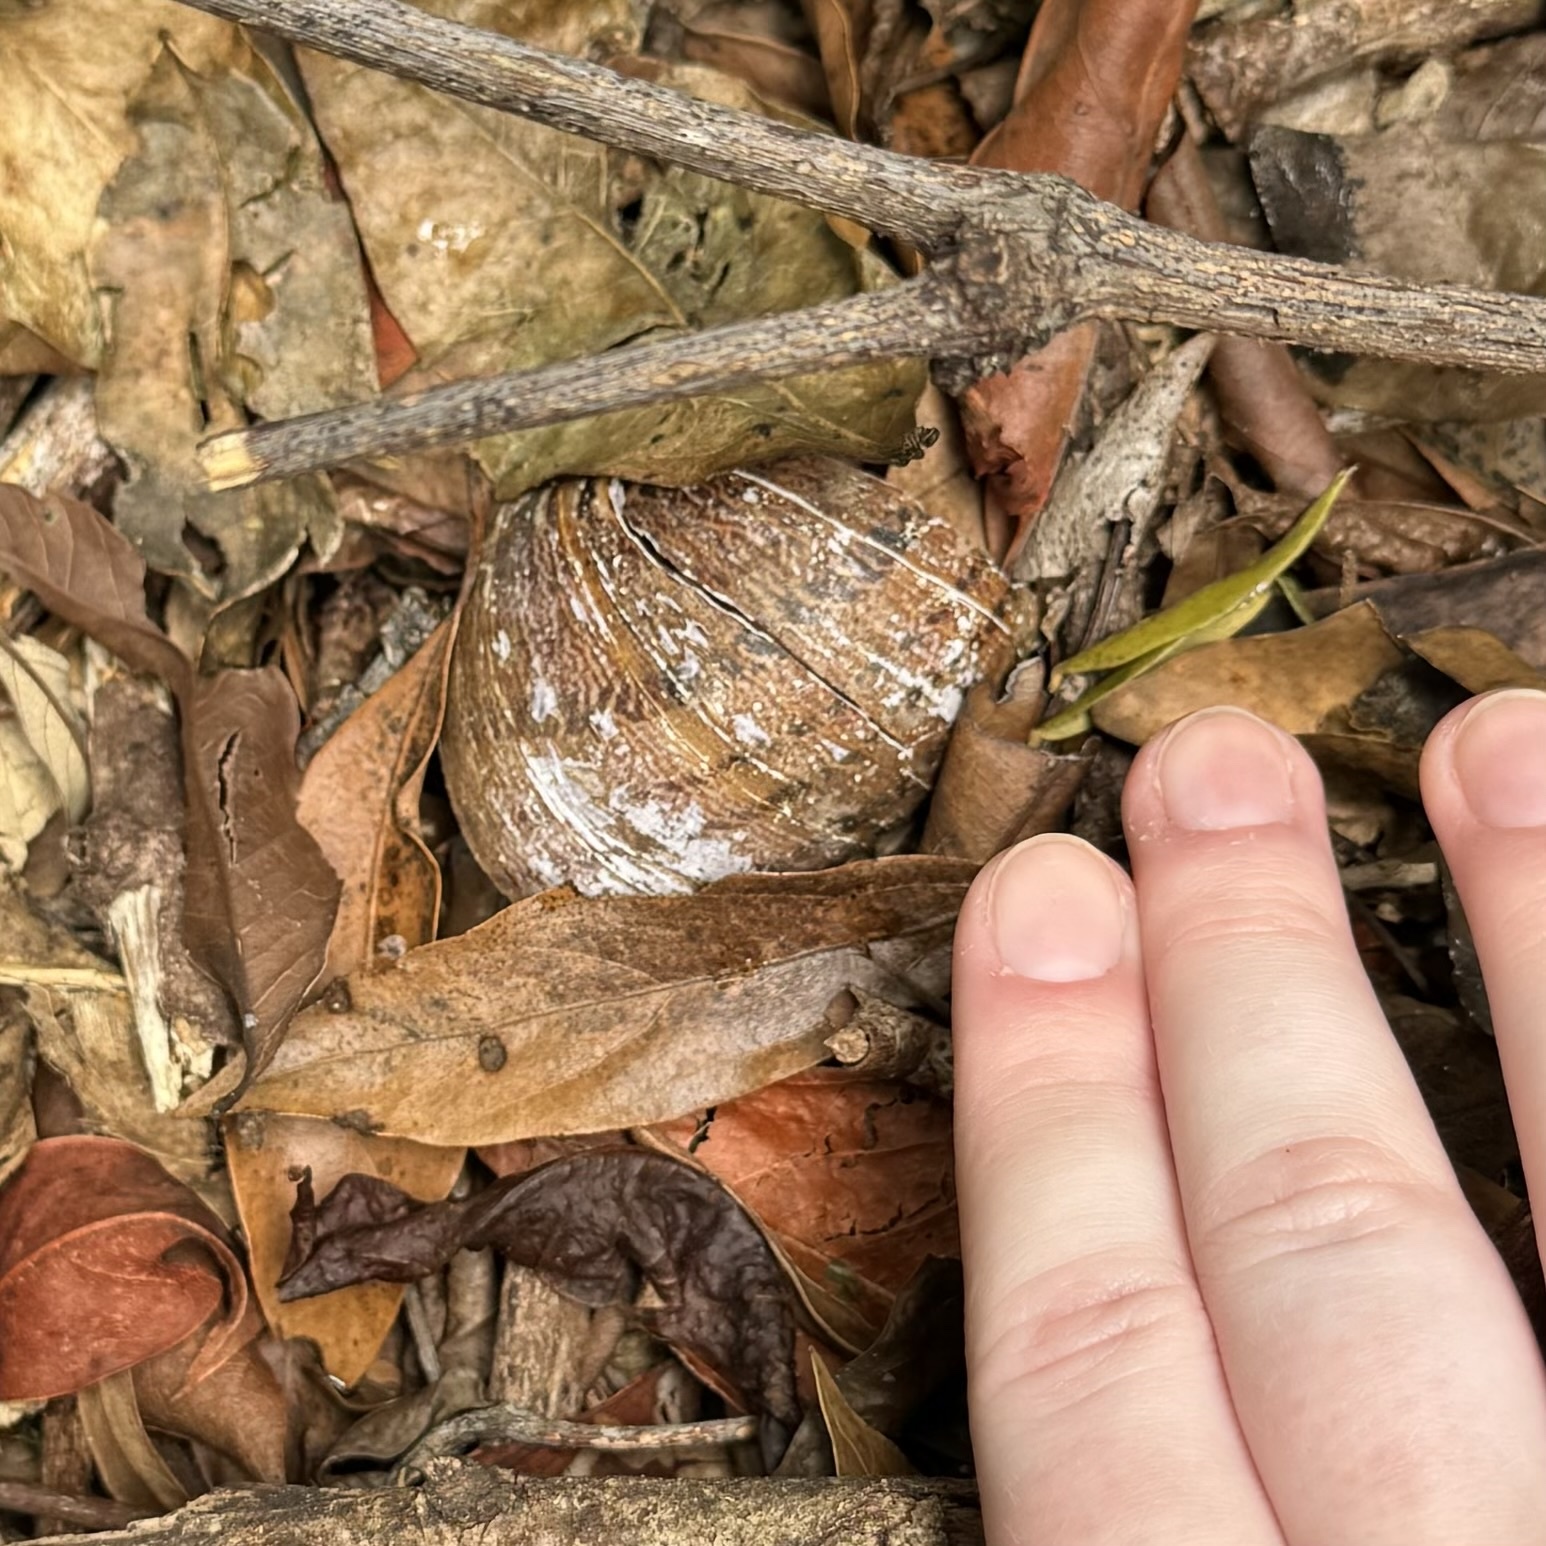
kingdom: Animalia
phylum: Mollusca
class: Gastropoda
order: Stylommatophora
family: Caryodidae
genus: Hedleyella
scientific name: Hedleyella falconeri
